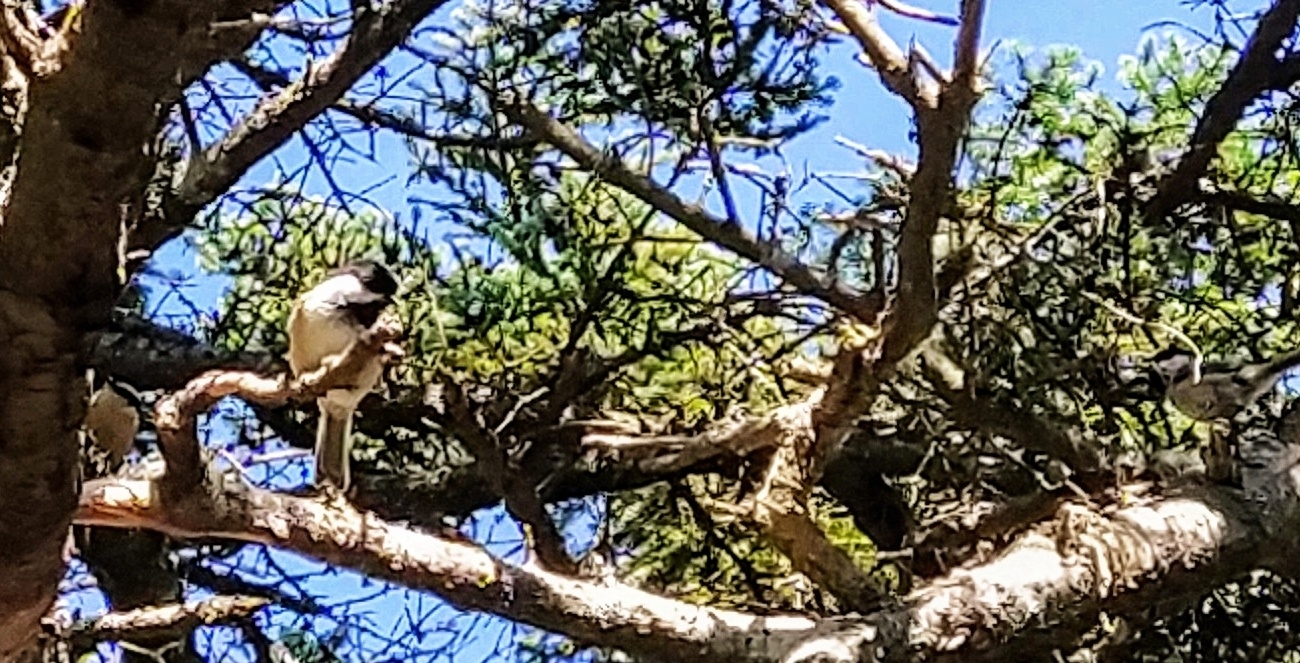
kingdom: Animalia
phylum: Chordata
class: Aves
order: Passeriformes
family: Paridae
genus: Poecile
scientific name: Poecile atricapillus
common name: Black-capped chickadee
